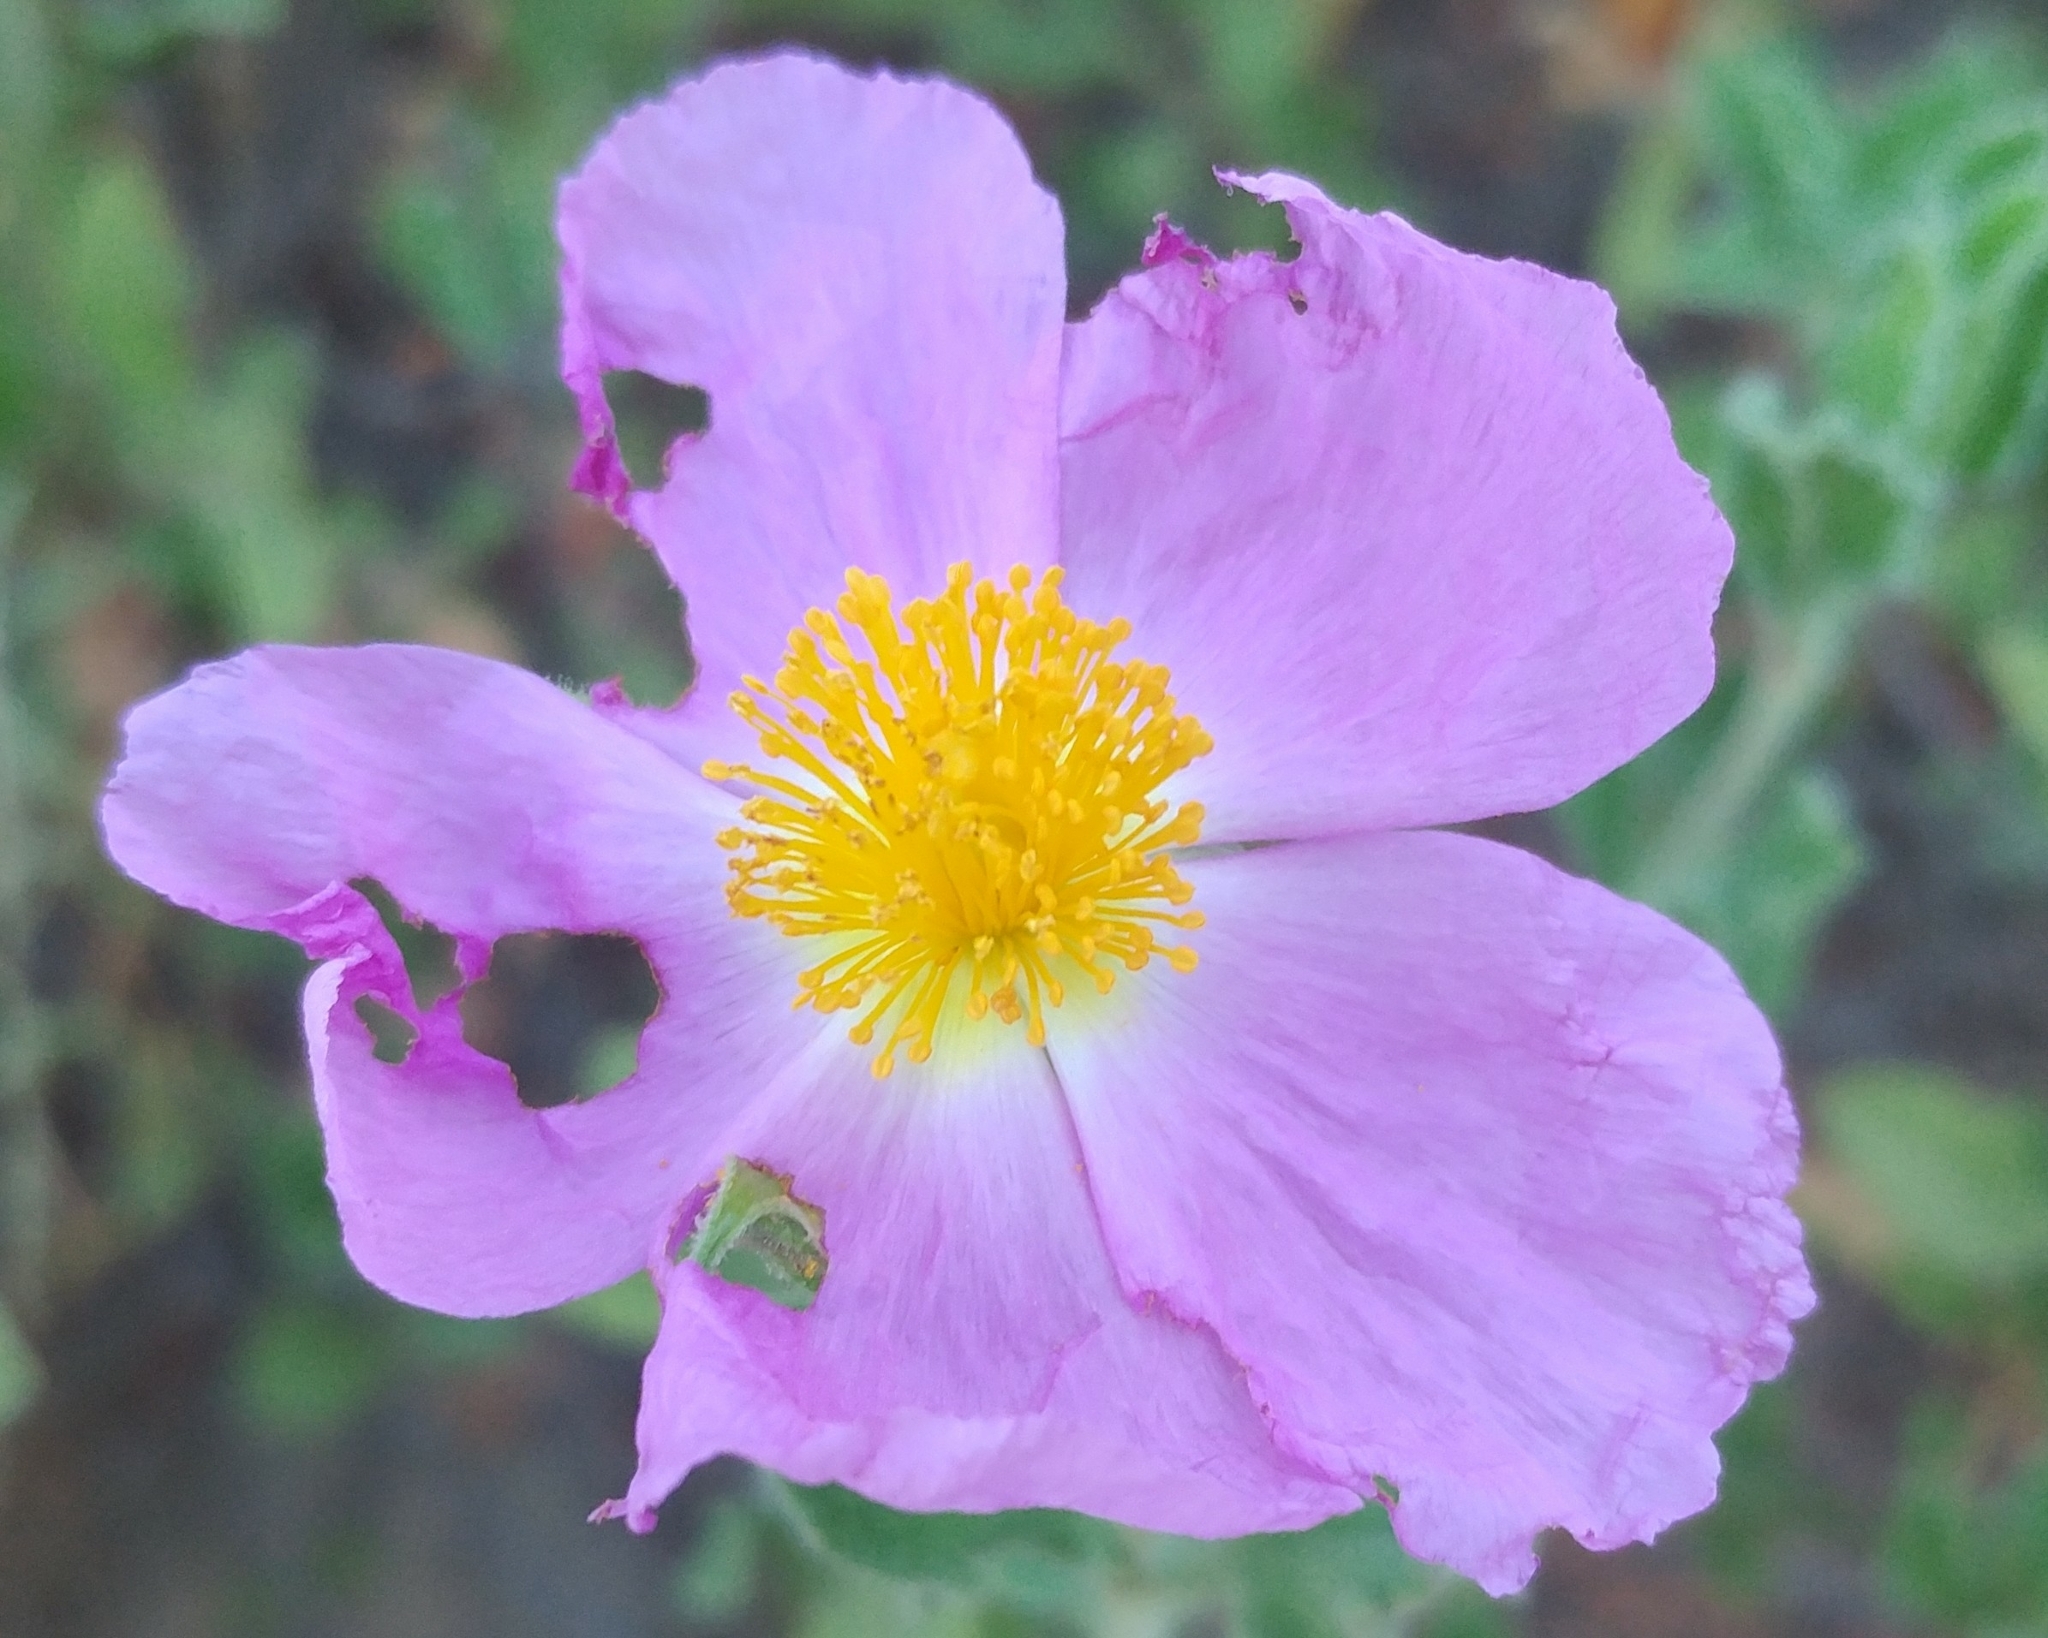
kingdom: Plantae
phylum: Tracheophyta
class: Magnoliopsida
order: Malvales
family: Cistaceae
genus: Cistus
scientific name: Cistus creticus
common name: Cretan rockrose
